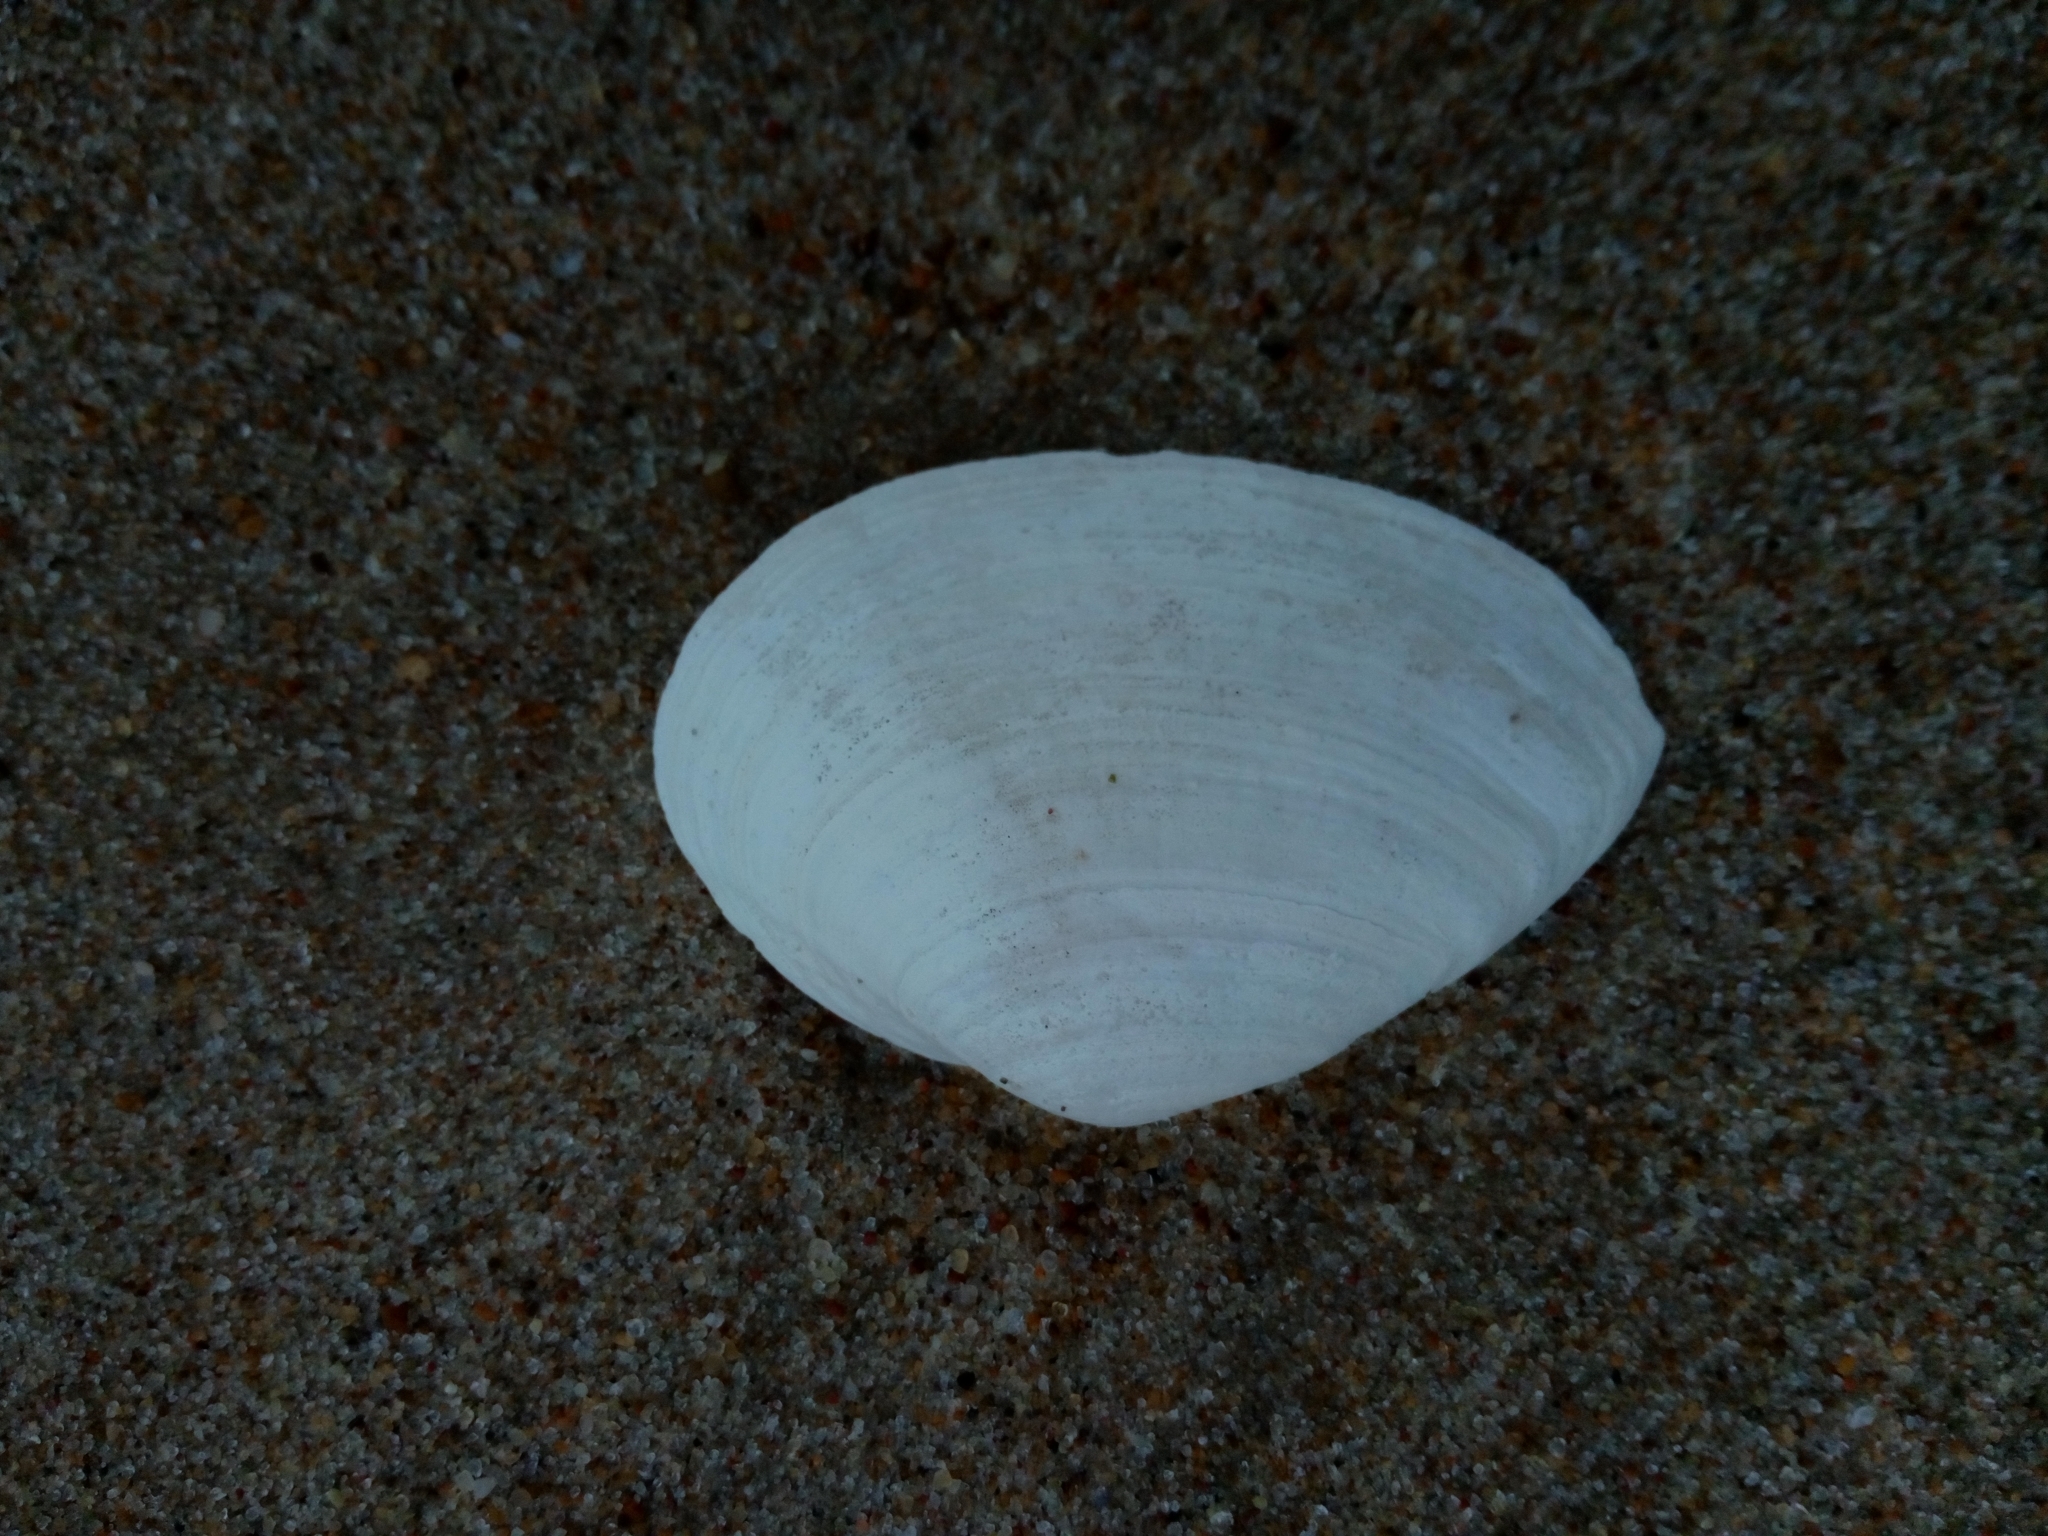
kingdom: Animalia
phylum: Mollusca
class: Bivalvia
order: Myida
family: Myidae
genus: Mya
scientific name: Mya arenaria
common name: Soft-shelled clam
